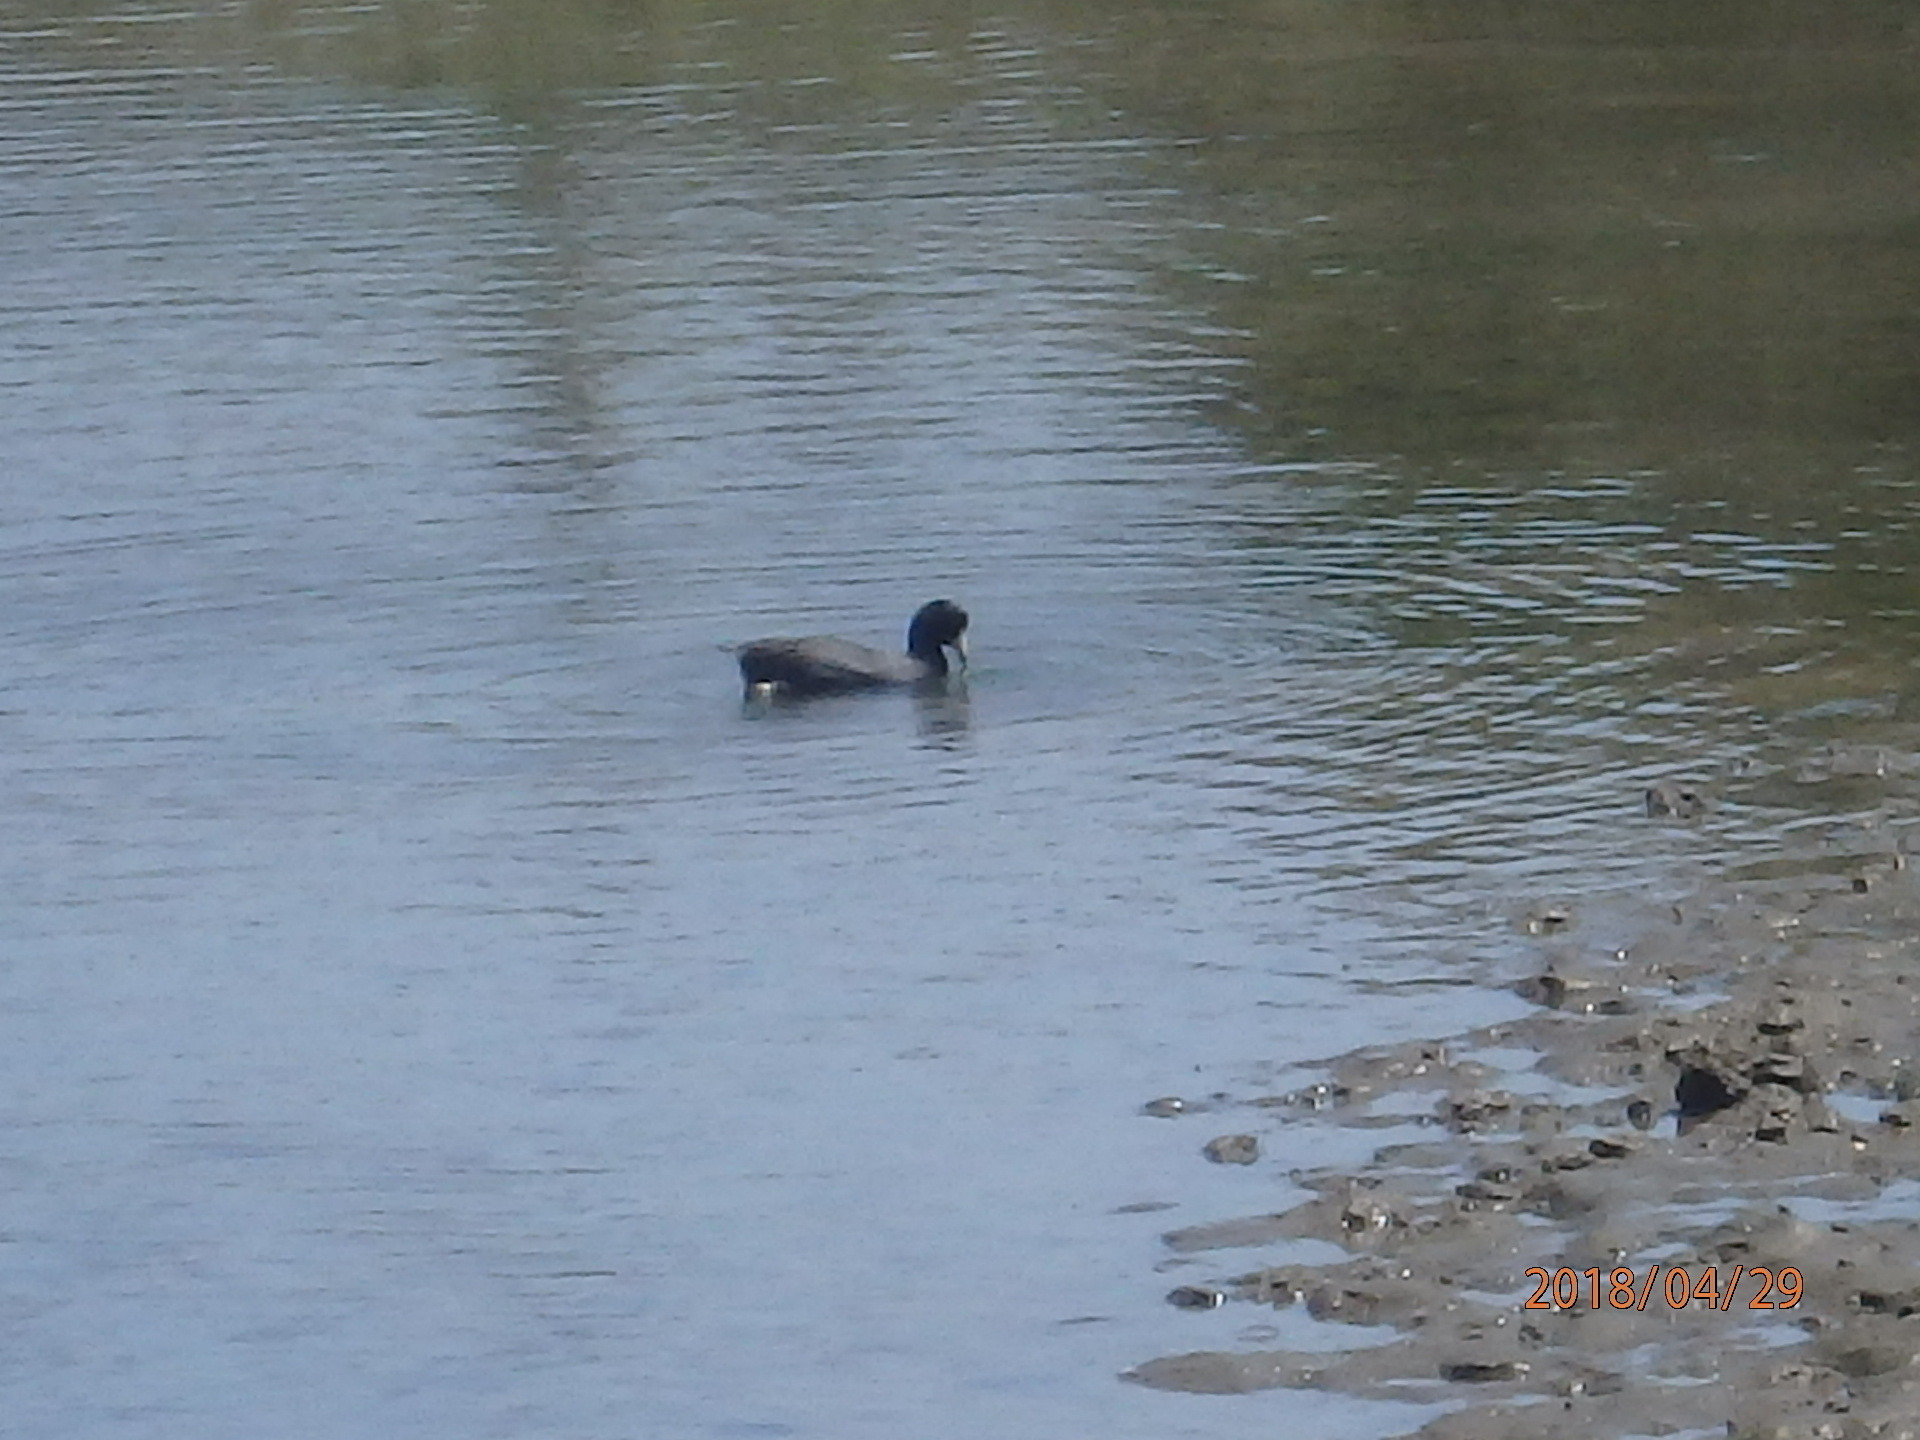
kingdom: Animalia
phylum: Chordata
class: Aves
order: Gruiformes
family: Rallidae
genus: Fulica
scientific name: Fulica americana
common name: American coot
